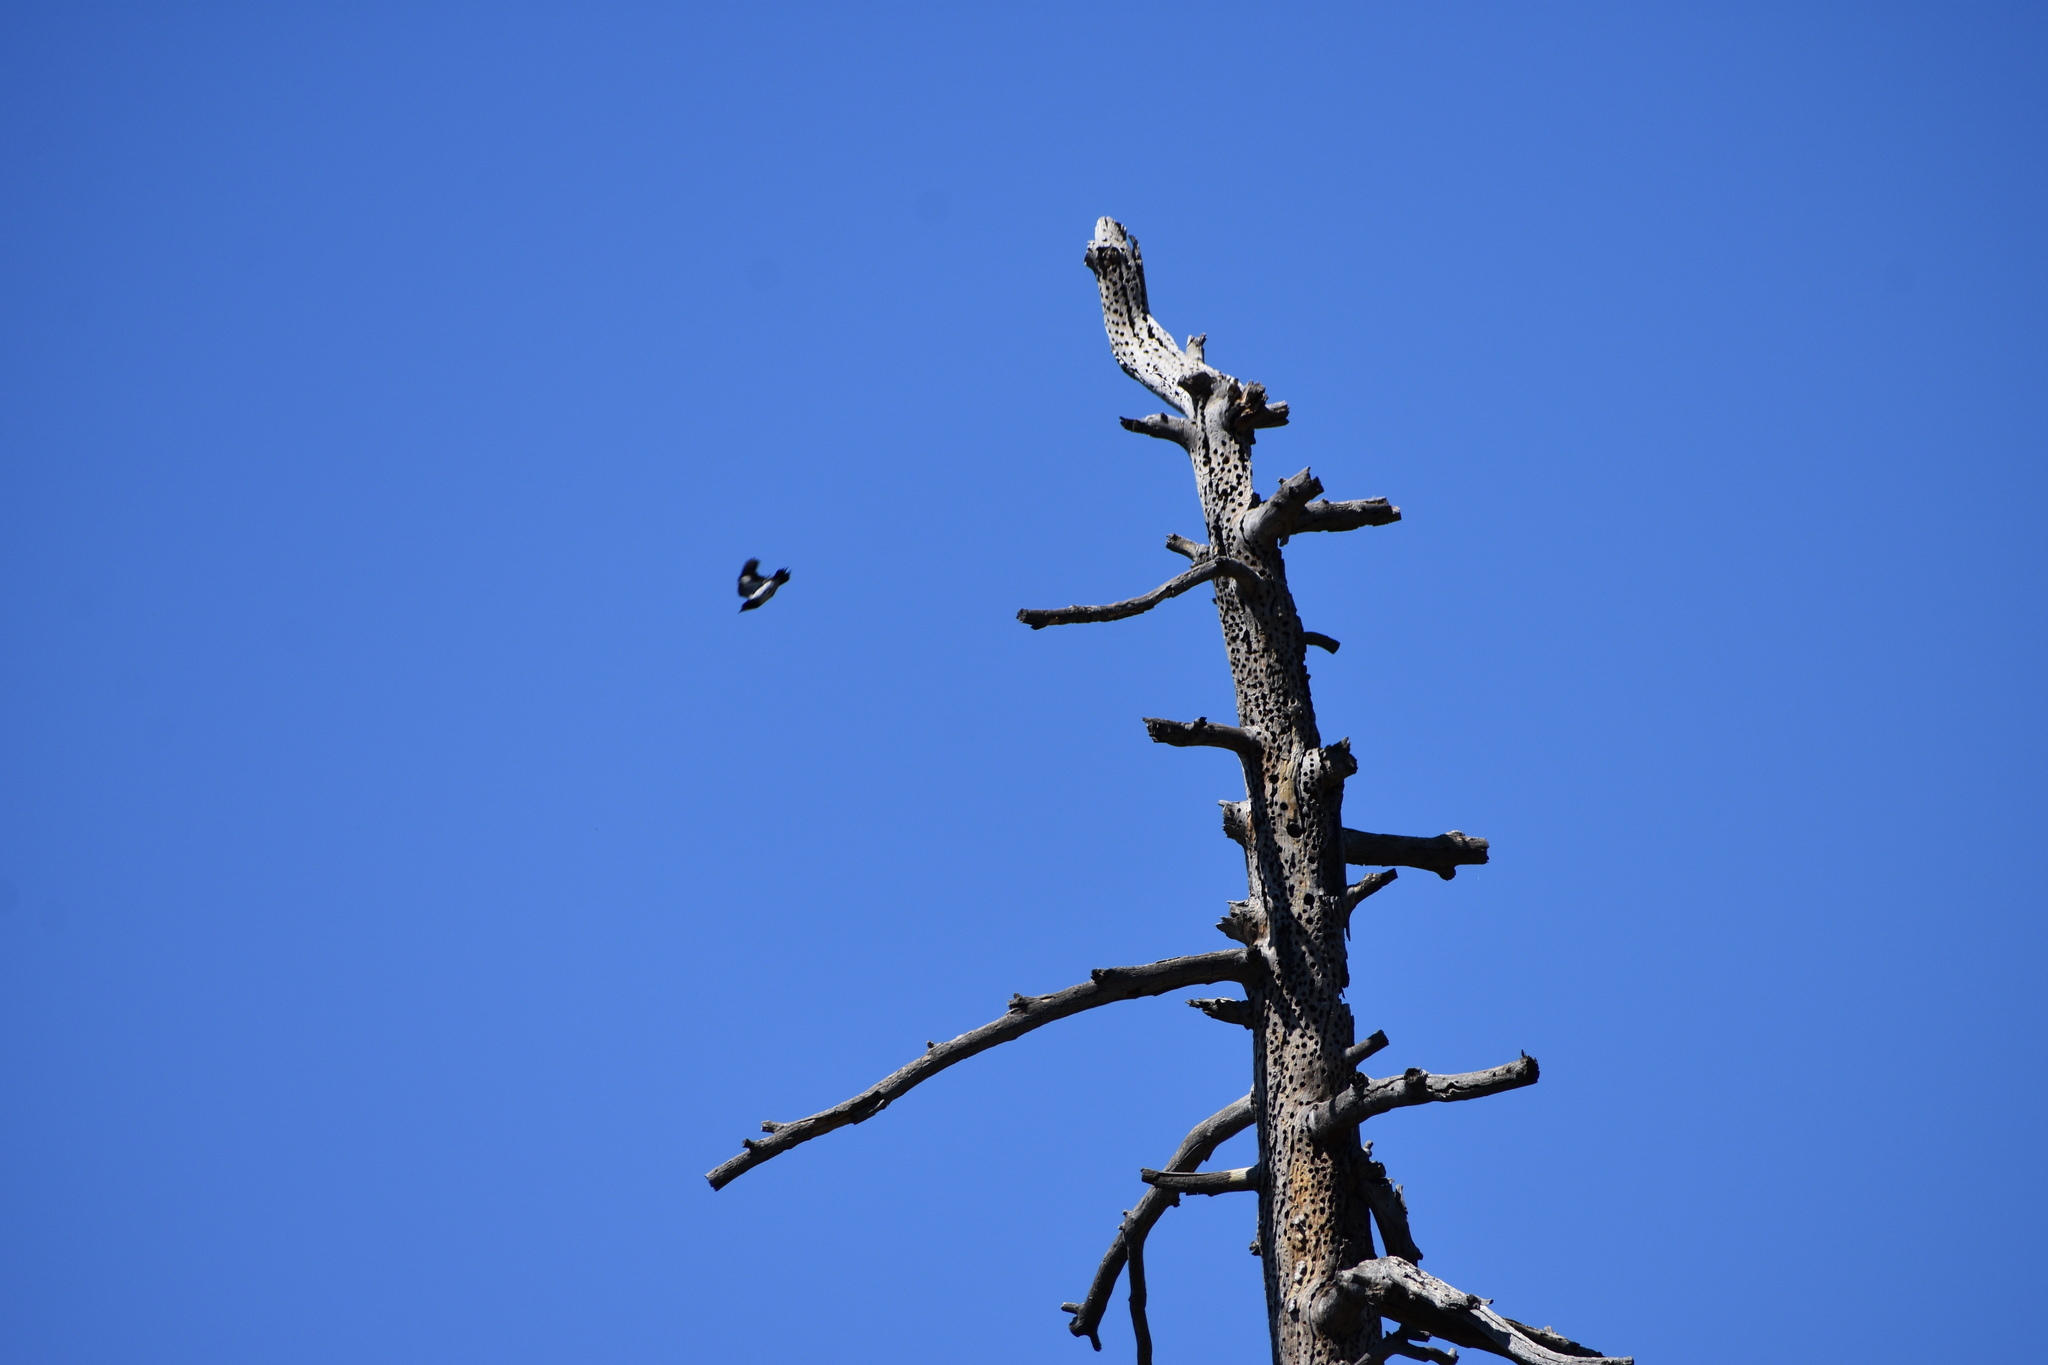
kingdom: Animalia
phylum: Chordata
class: Aves
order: Piciformes
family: Picidae
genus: Melanerpes
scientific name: Melanerpes formicivorus
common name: Acorn woodpecker
